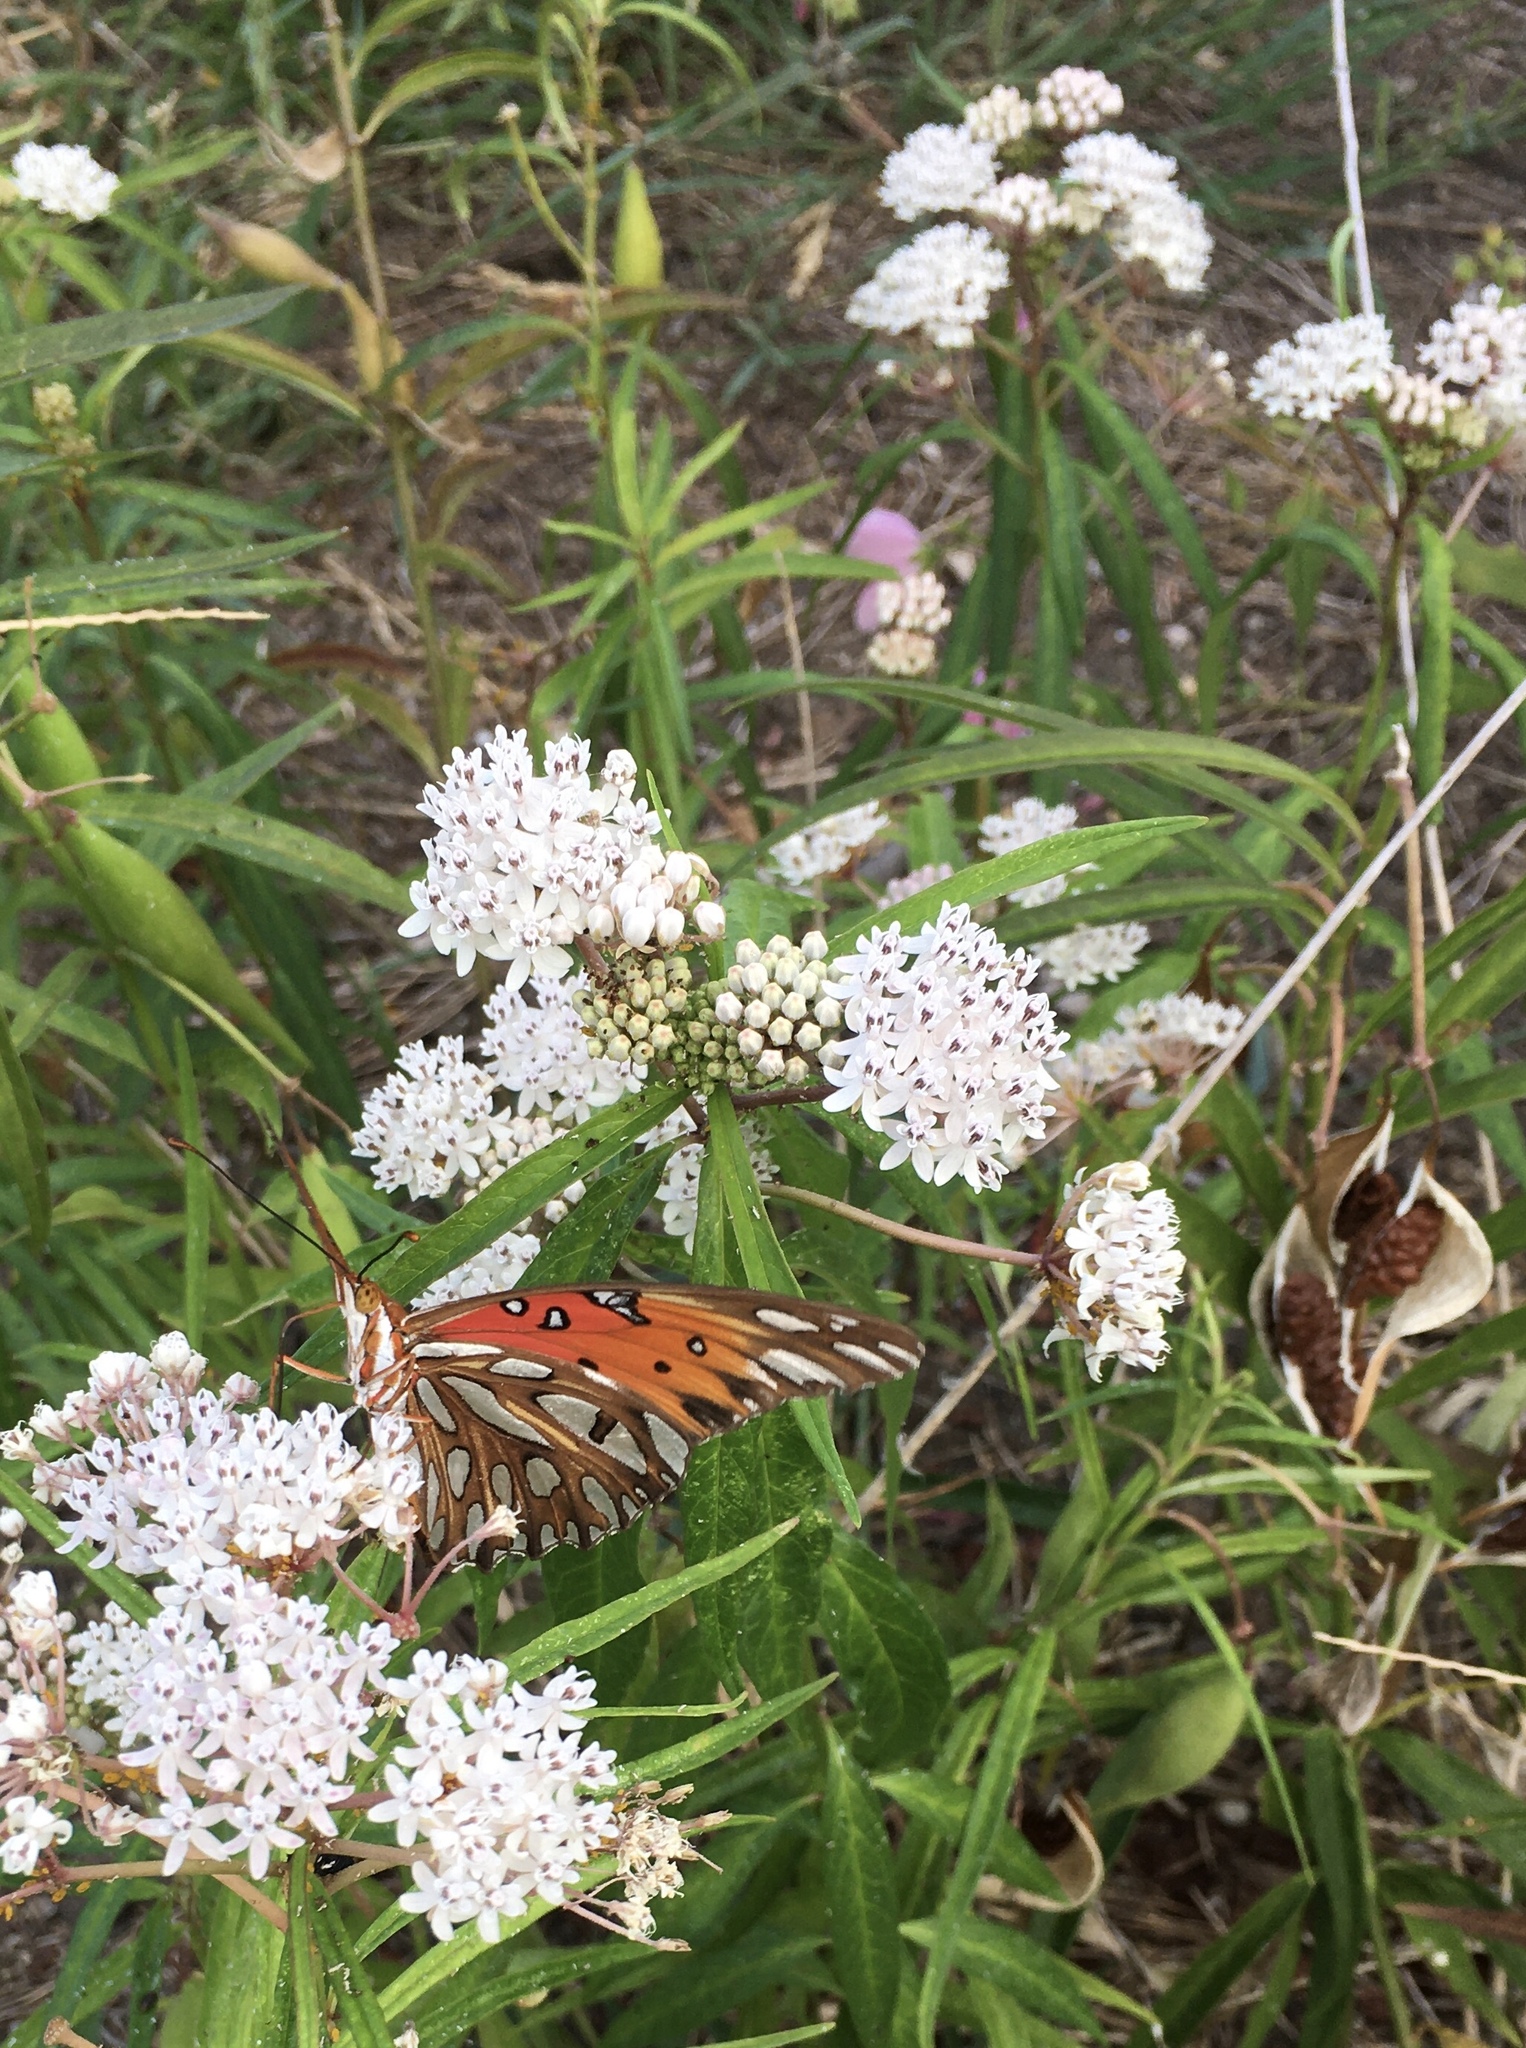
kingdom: Animalia
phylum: Arthropoda
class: Insecta
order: Lepidoptera
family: Nymphalidae
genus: Dione
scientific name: Dione vanillae
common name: Gulf fritillary
